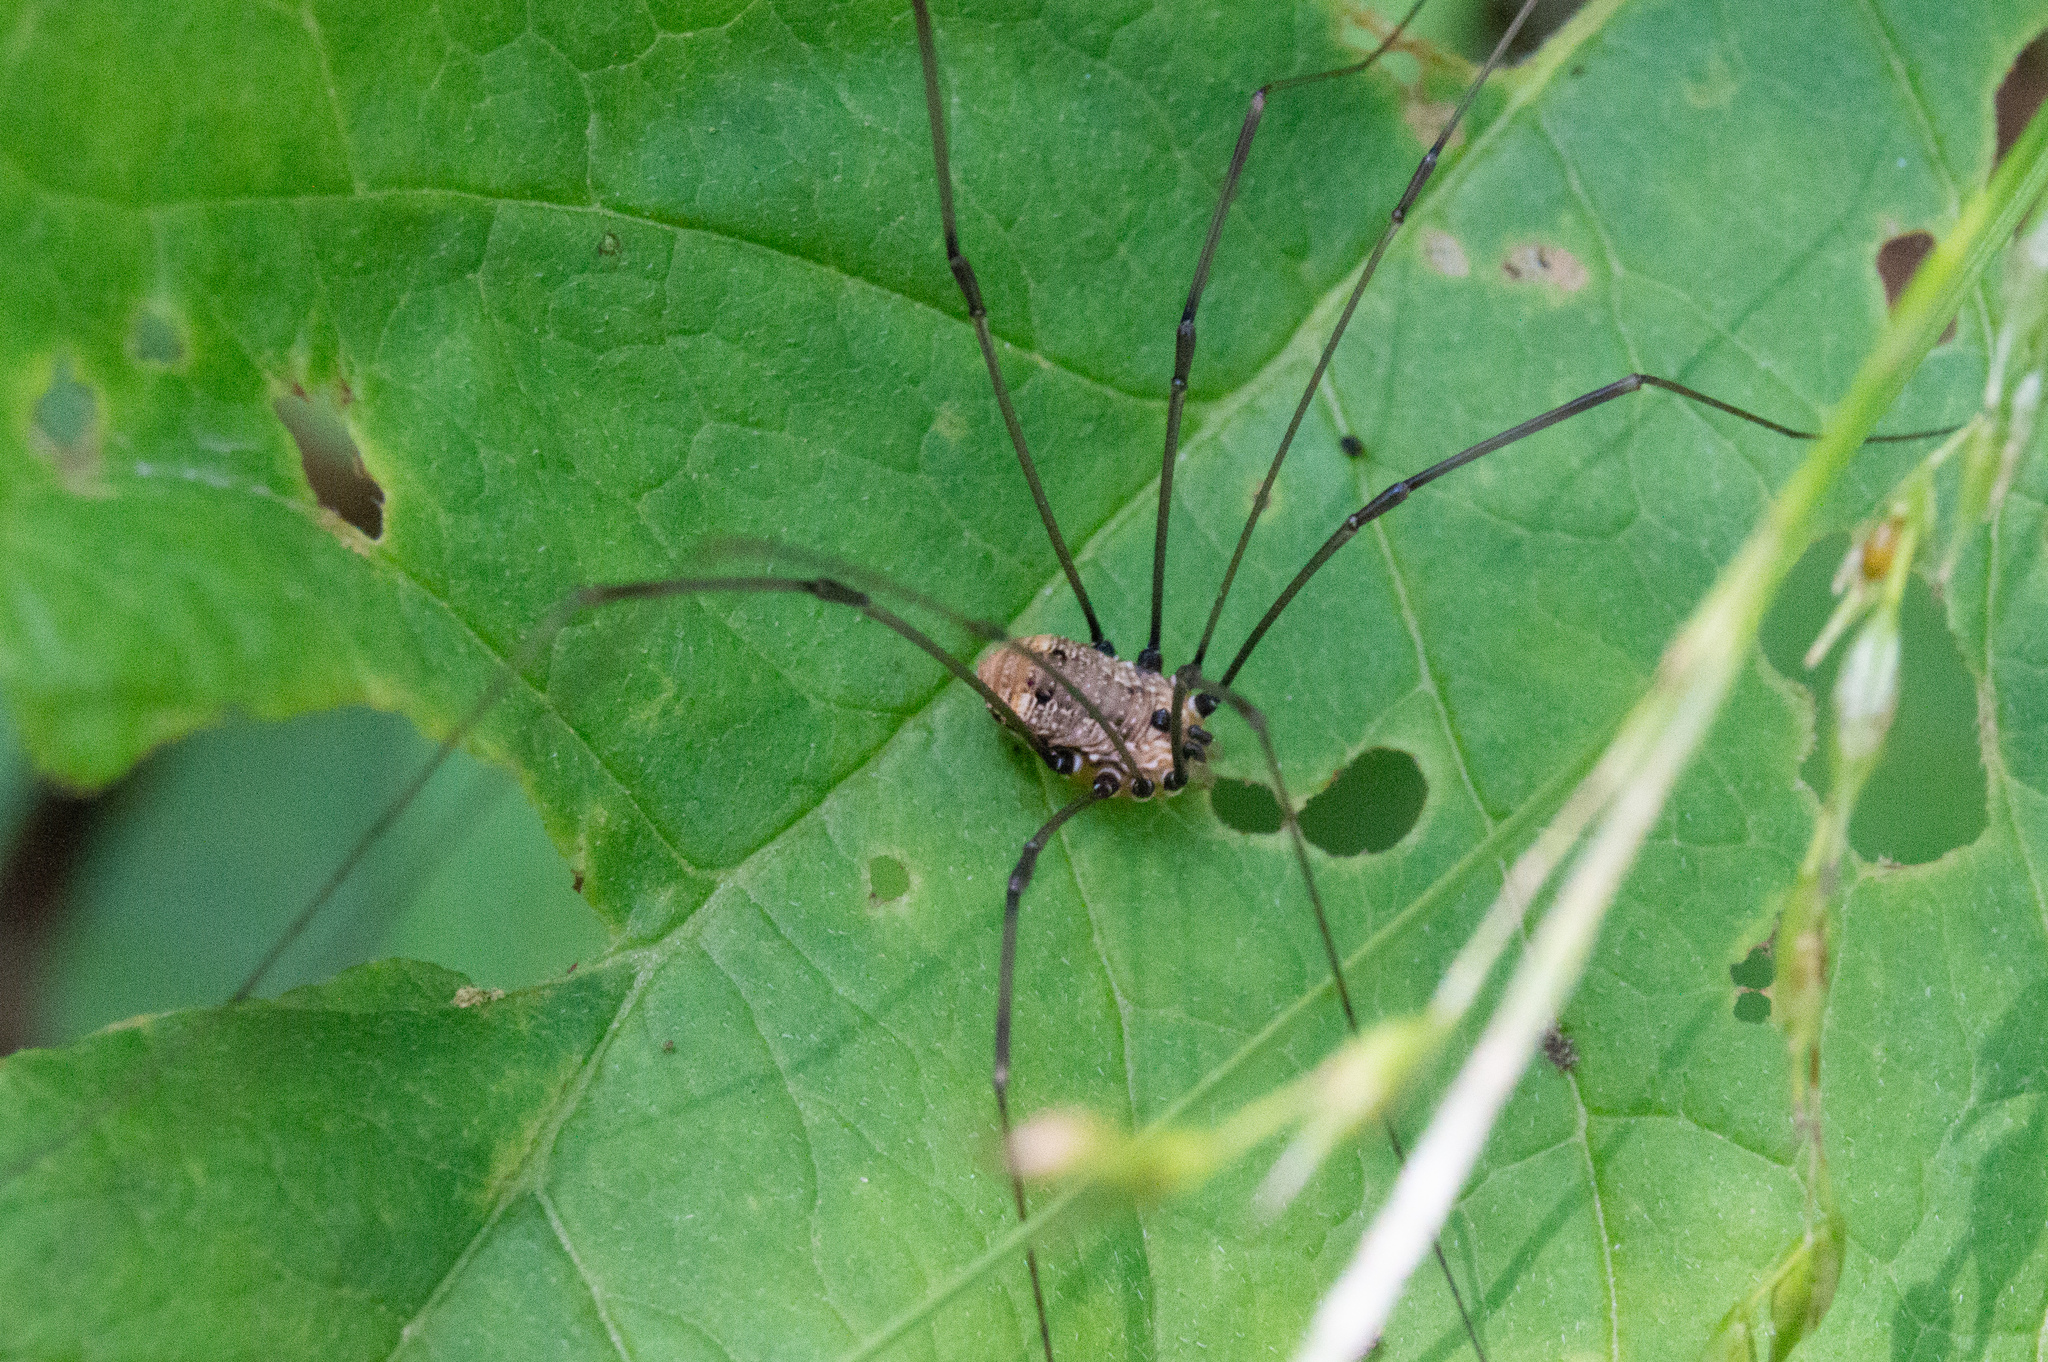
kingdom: Animalia
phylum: Arthropoda
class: Arachnida
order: Opiliones
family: Sclerosomatidae
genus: Leiobunum
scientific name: Leiobunum nigropalpi
